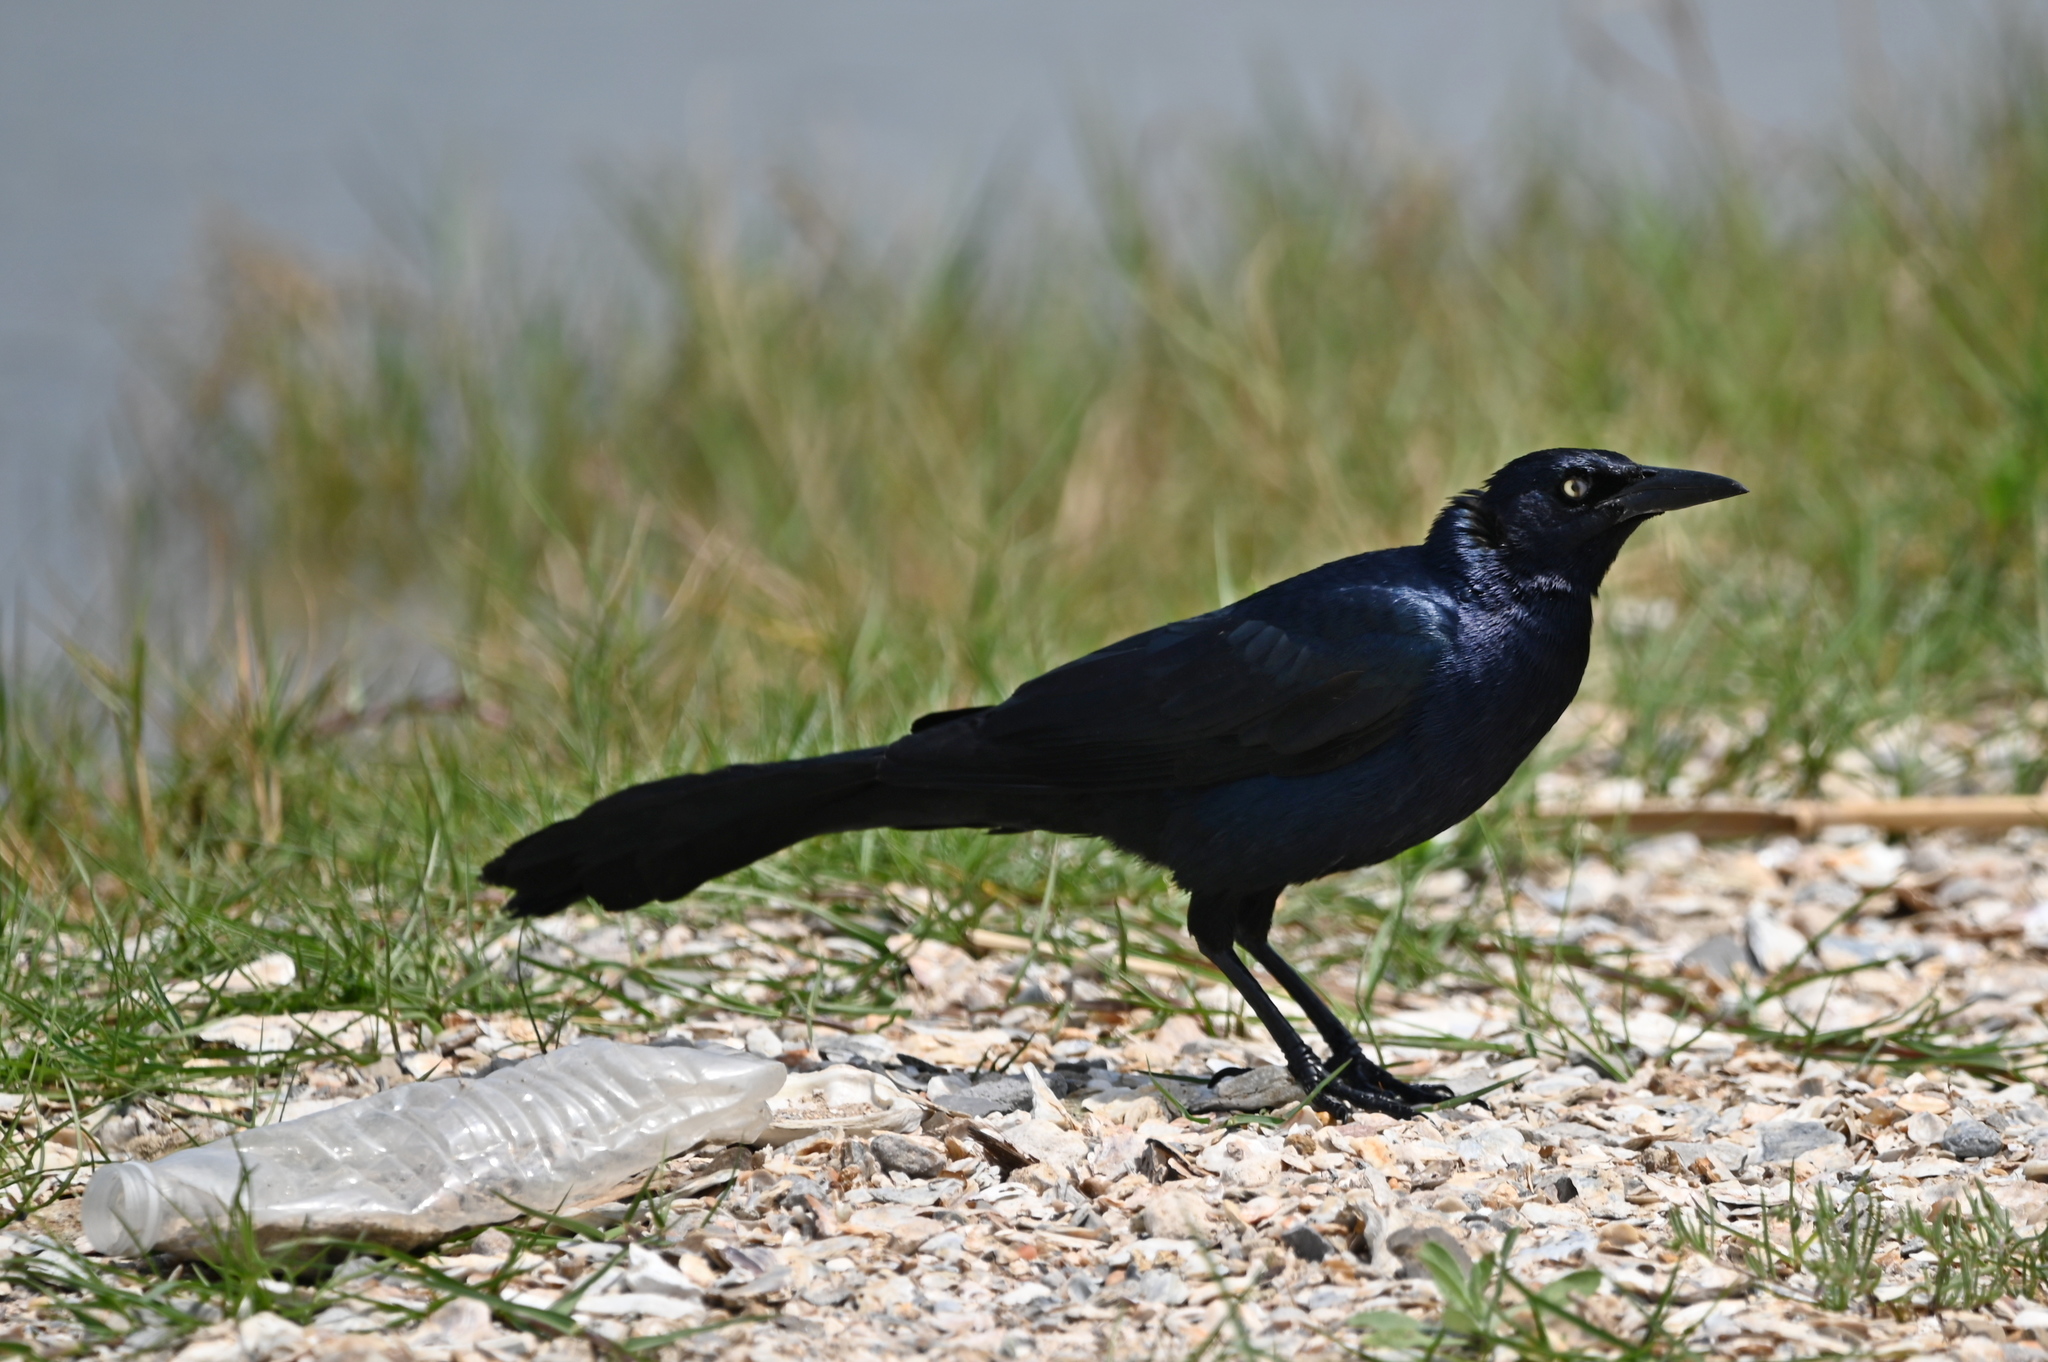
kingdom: Animalia
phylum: Chordata
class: Aves
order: Passeriformes
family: Icteridae
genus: Quiscalus
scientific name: Quiscalus mexicanus
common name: Great-tailed grackle
